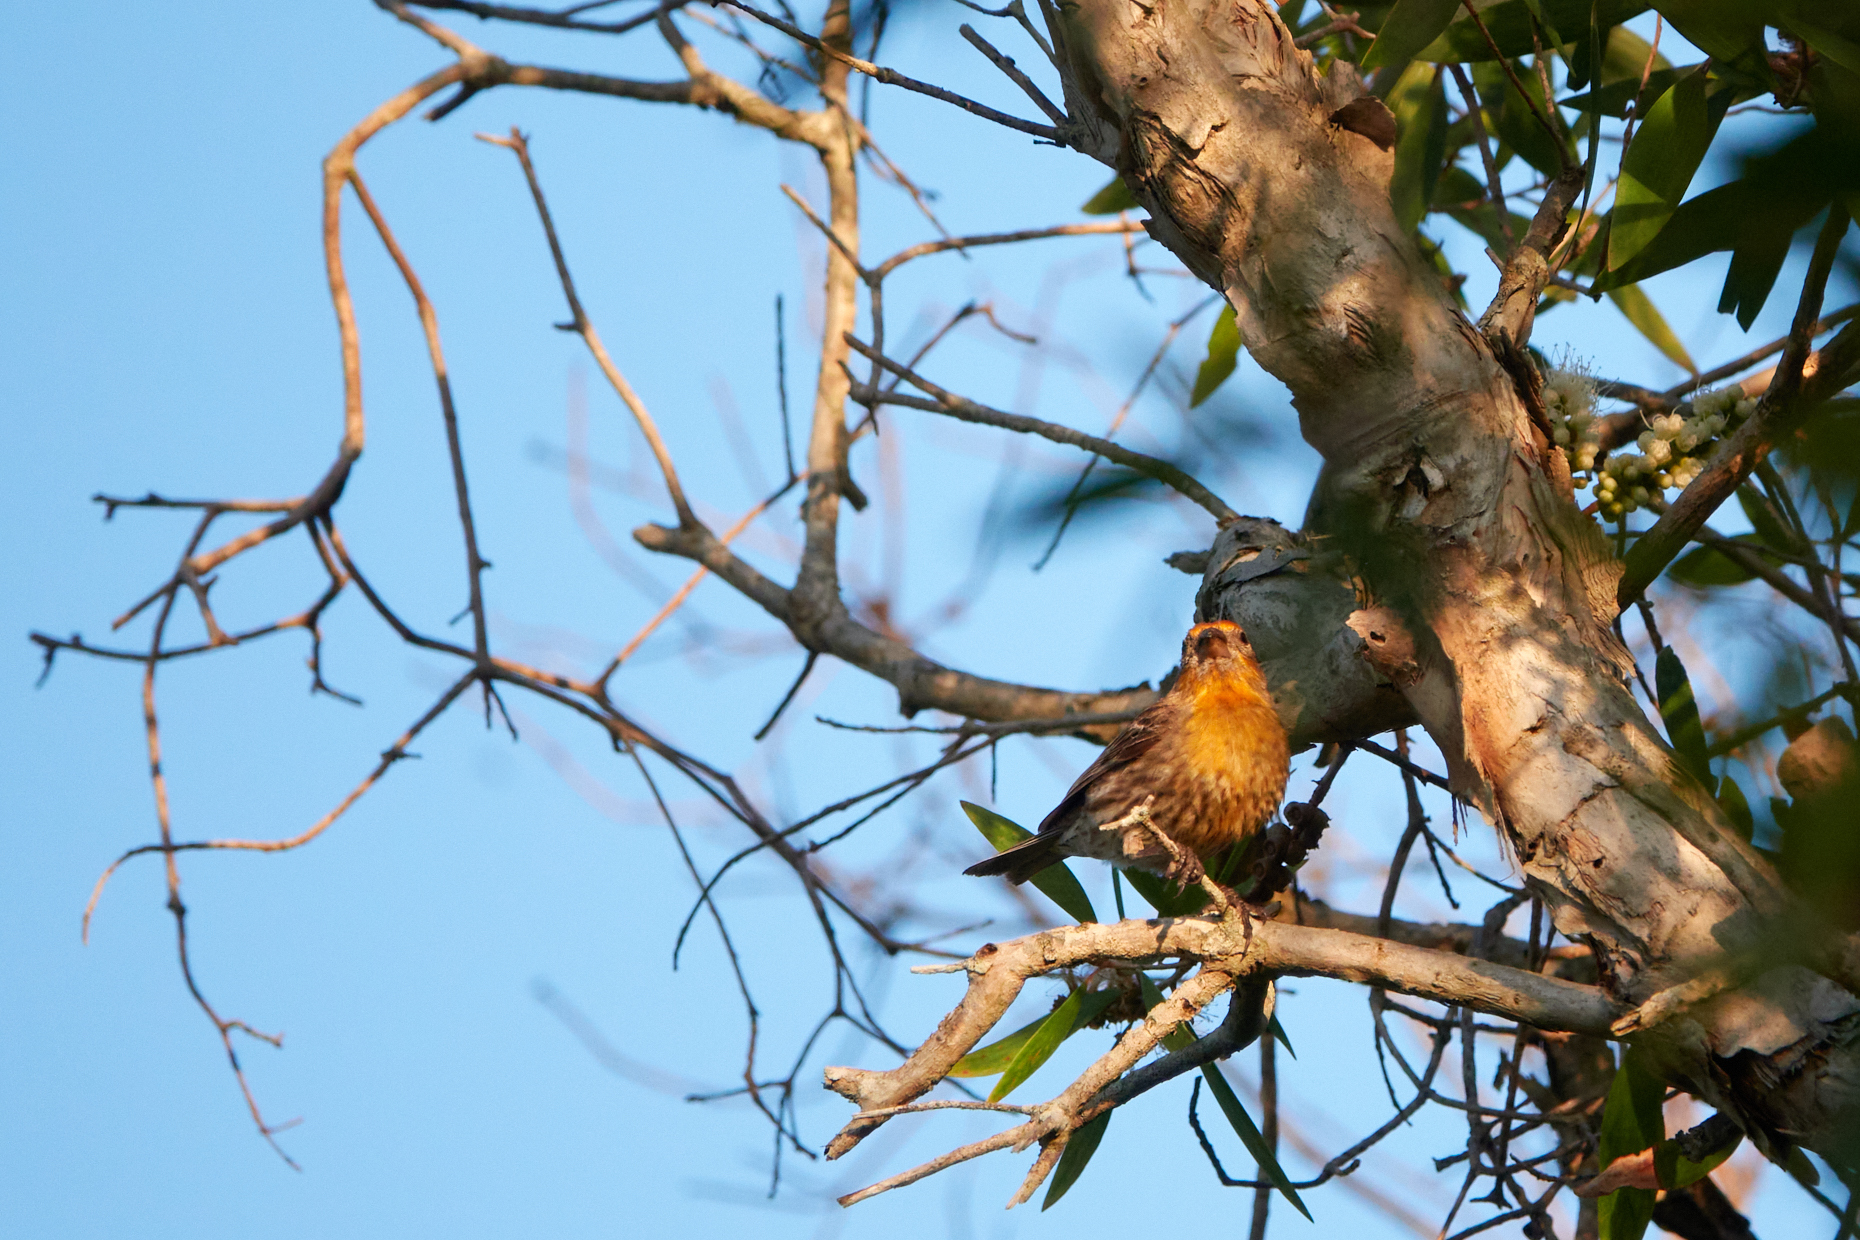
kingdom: Animalia
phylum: Chordata
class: Aves
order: Passeriformes
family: Fringillidae
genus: Haemorhous
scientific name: Haemorhous mexicanus
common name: House finch
